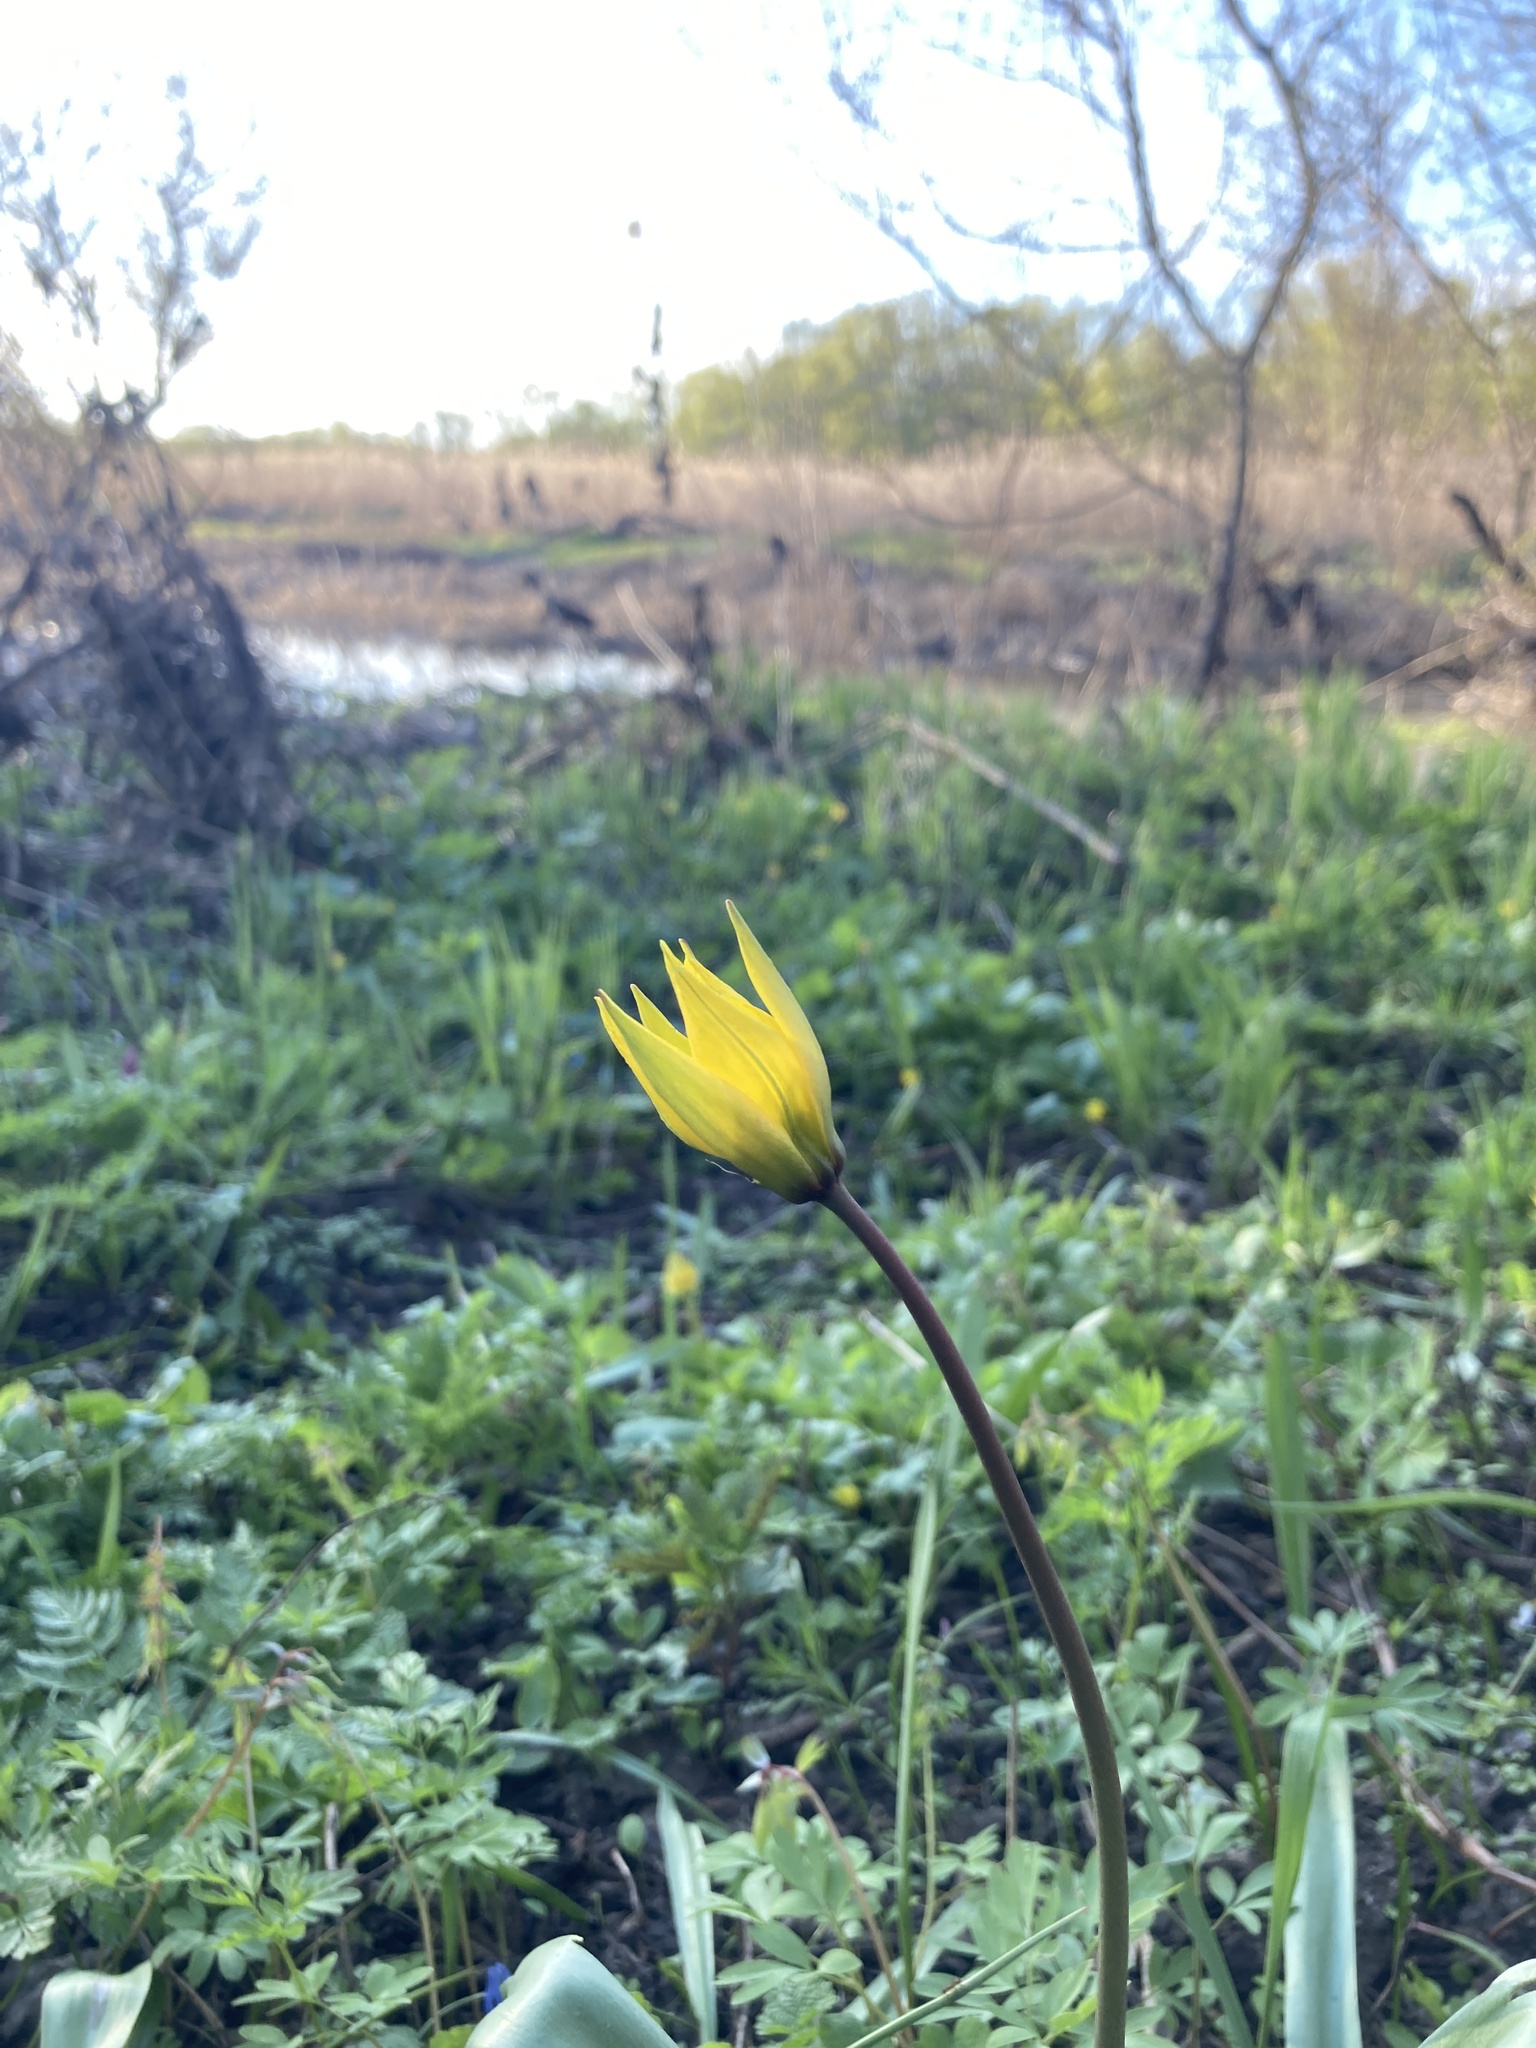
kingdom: Plantae
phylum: Tracheophyta
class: Liliopsida
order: Liliales
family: Liliaceae
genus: Tulipa
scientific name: Tulipa sylvestris
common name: Wild tulip
